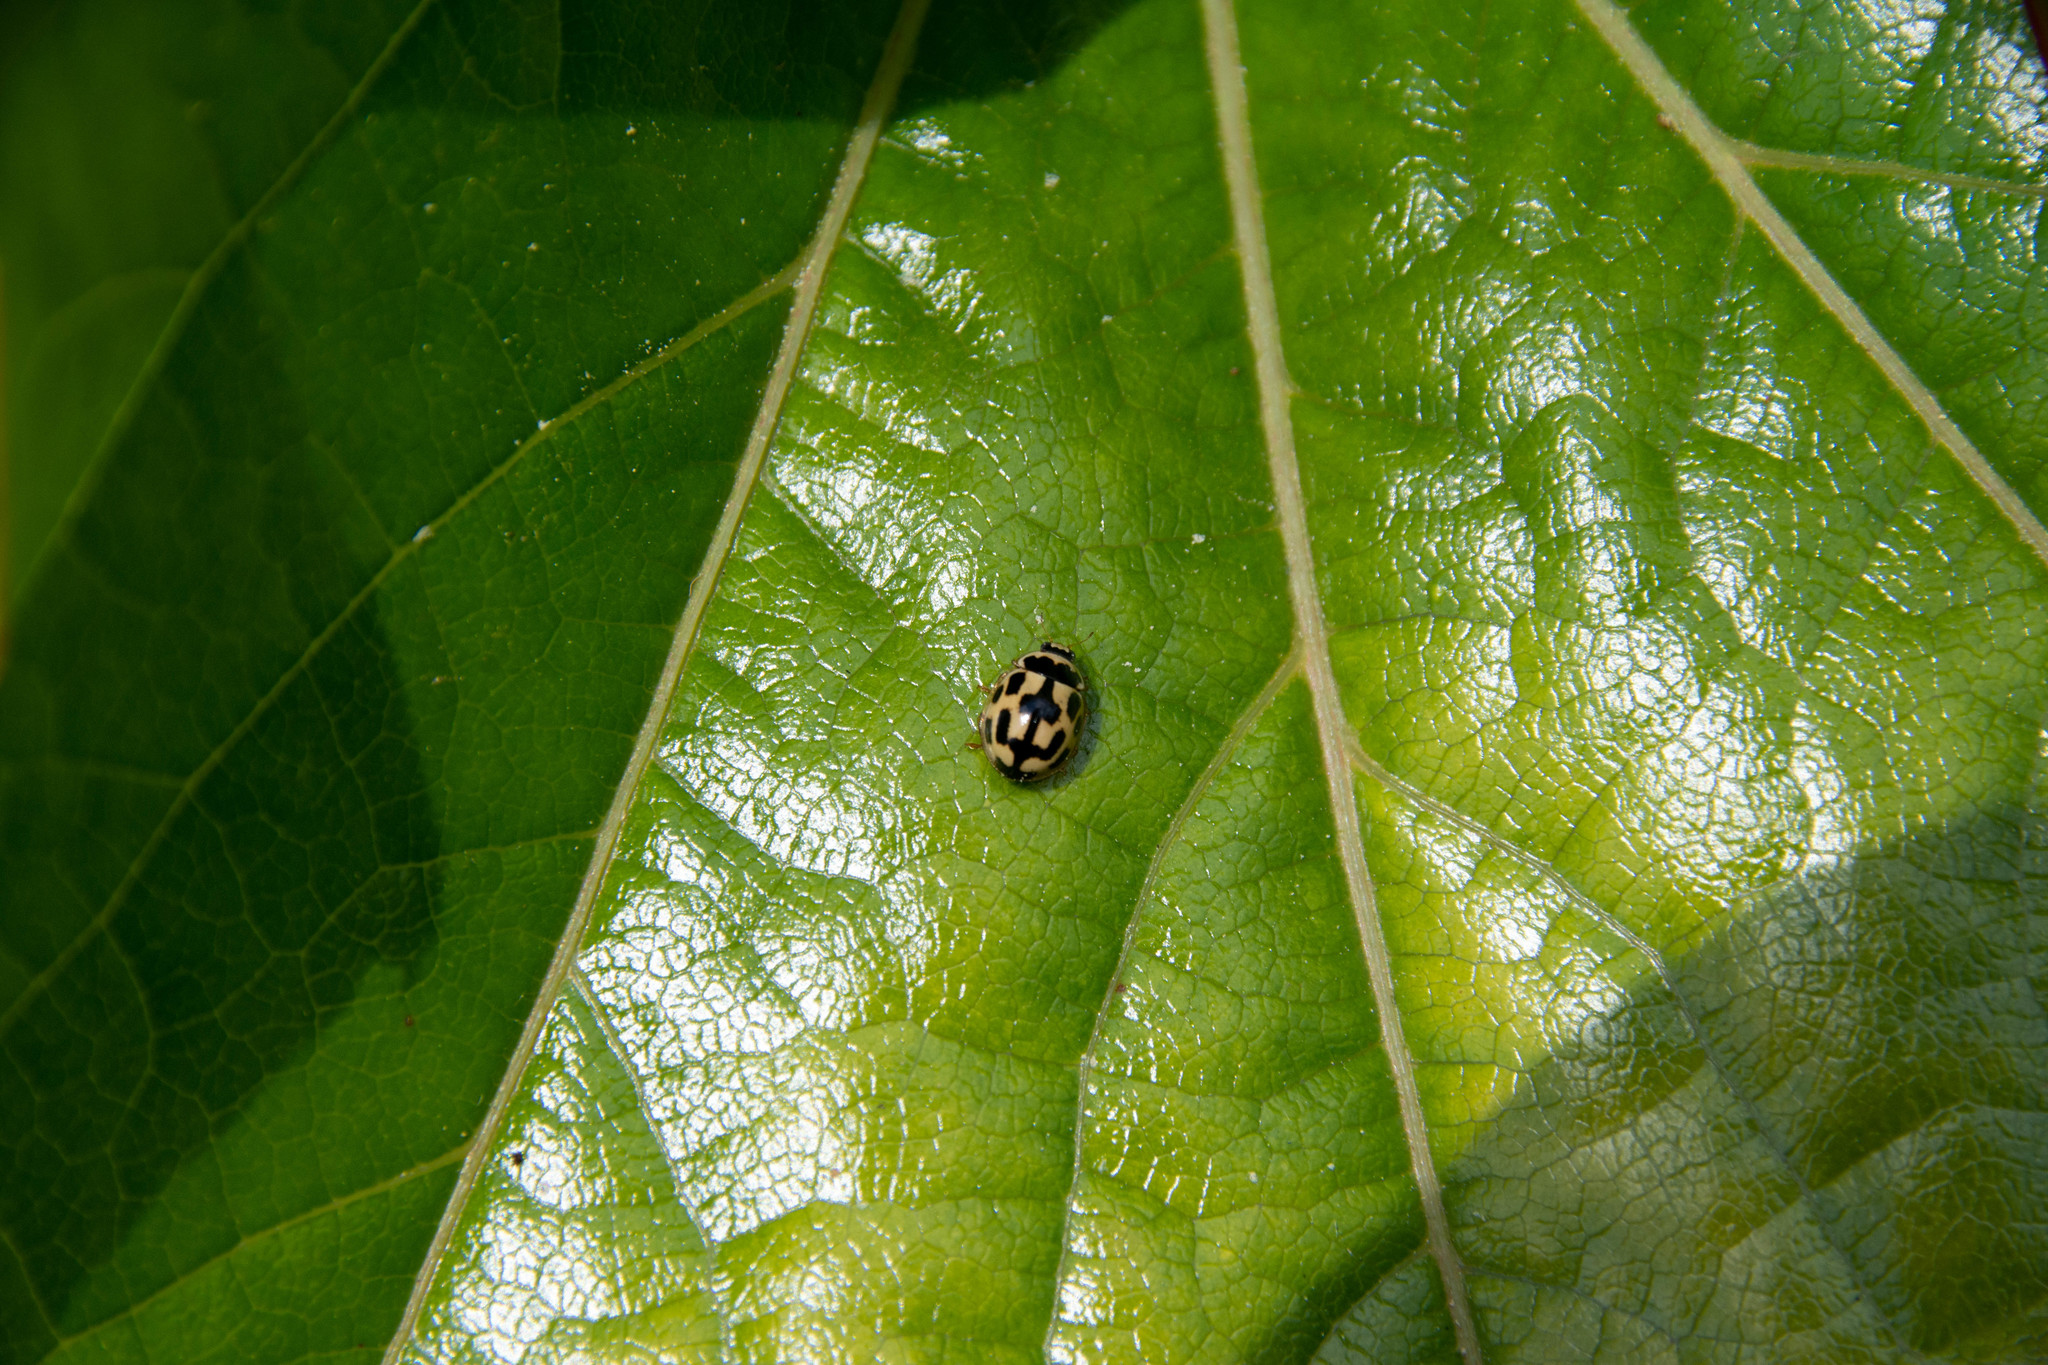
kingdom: Animalia
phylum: Arthropoda
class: Insecta
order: Coleoptera
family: Coccinellidae
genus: Propylaea
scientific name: Propylaea quatuordecimpunctata
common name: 14-spotted ladybird beetle
